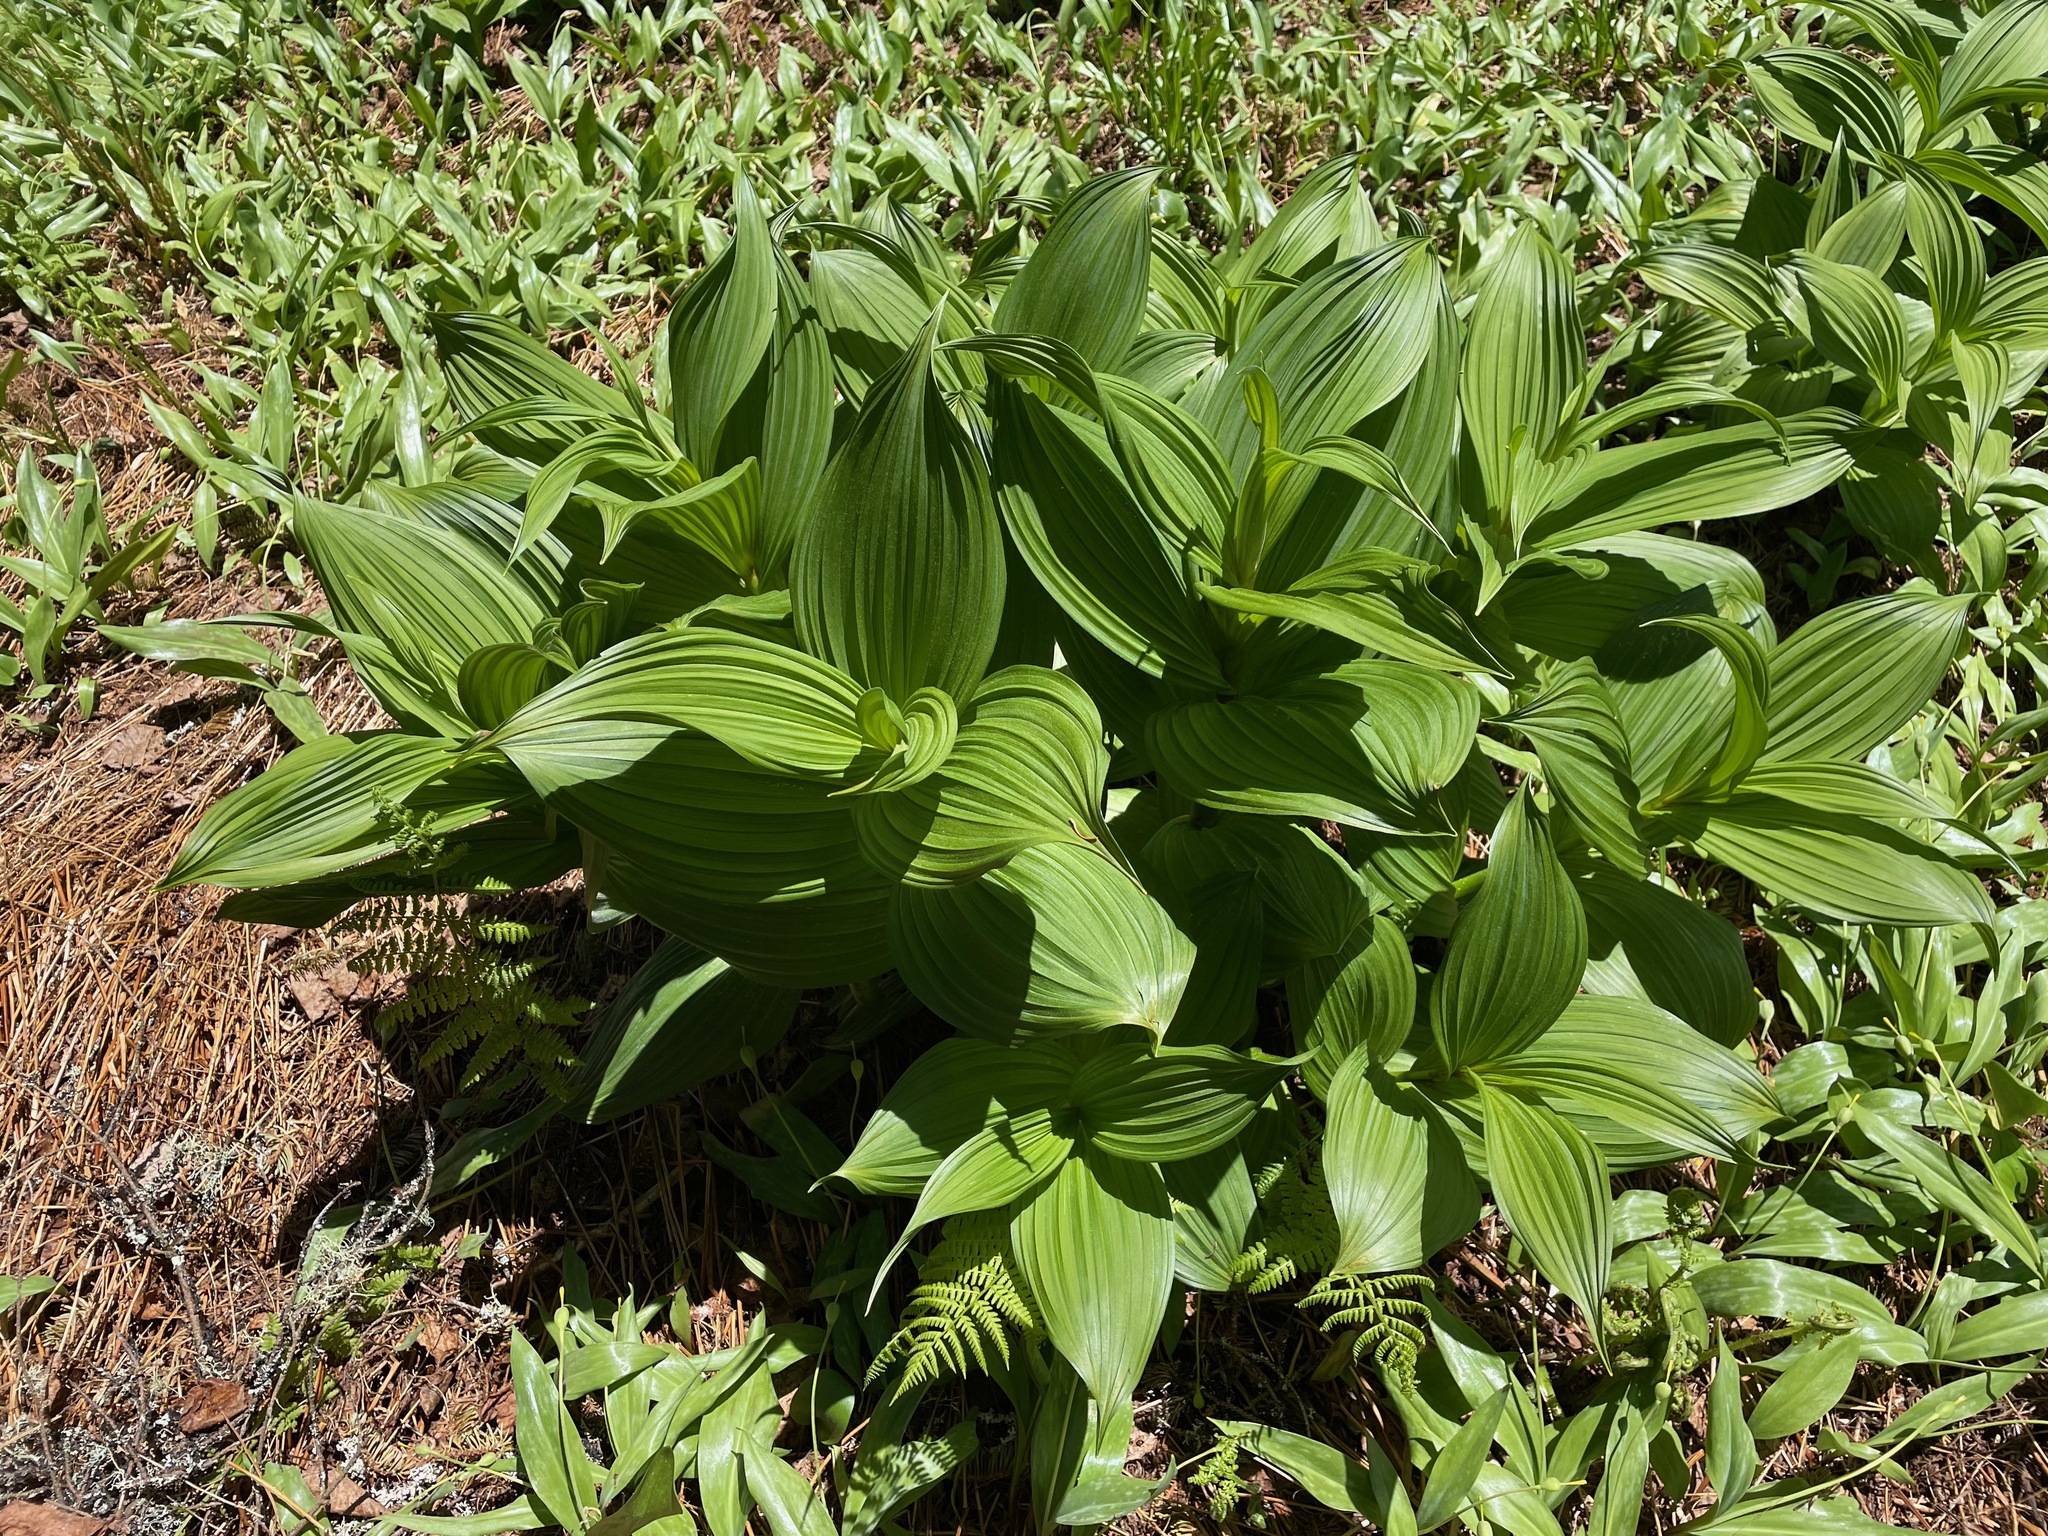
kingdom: Plantae
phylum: Tracheophyta
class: Liliopsida
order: Liliales
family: Melanthiaceae
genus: Veratrum
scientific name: Veratrum viride
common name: American false hellebore
